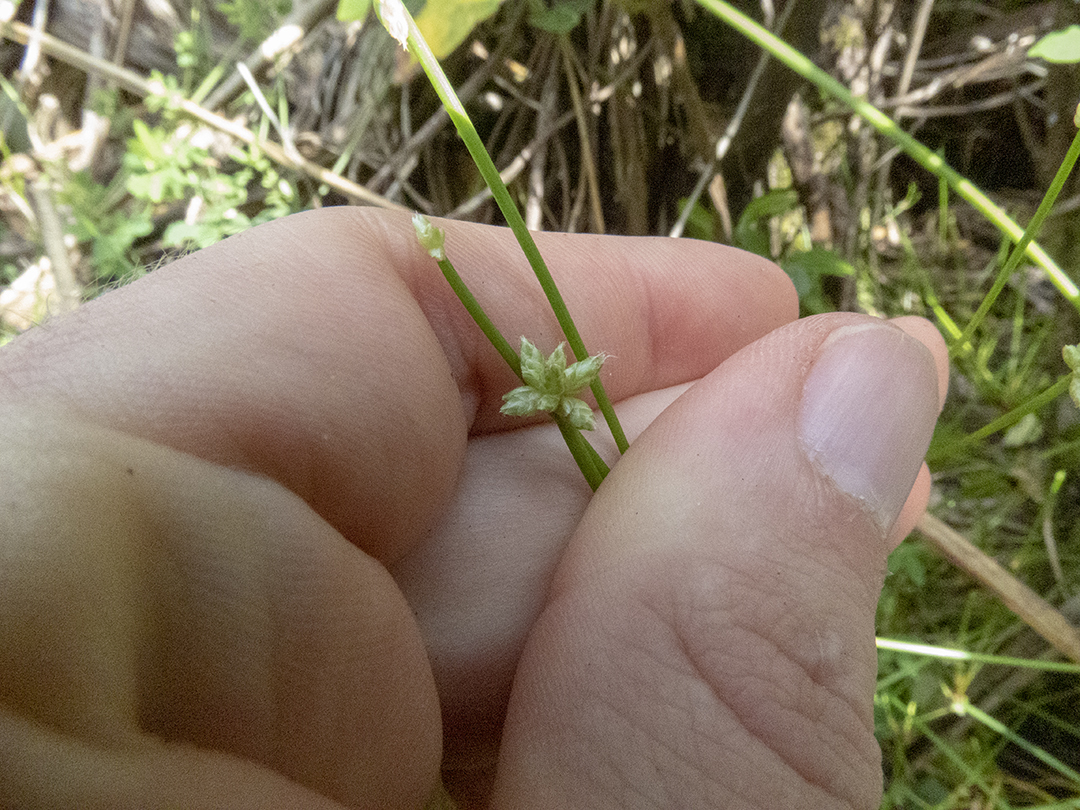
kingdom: Plantae
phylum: Tracheophyta
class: Liliopsida
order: Poales
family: Cyperaceae
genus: Ficinia
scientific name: Ficinia nodosa
